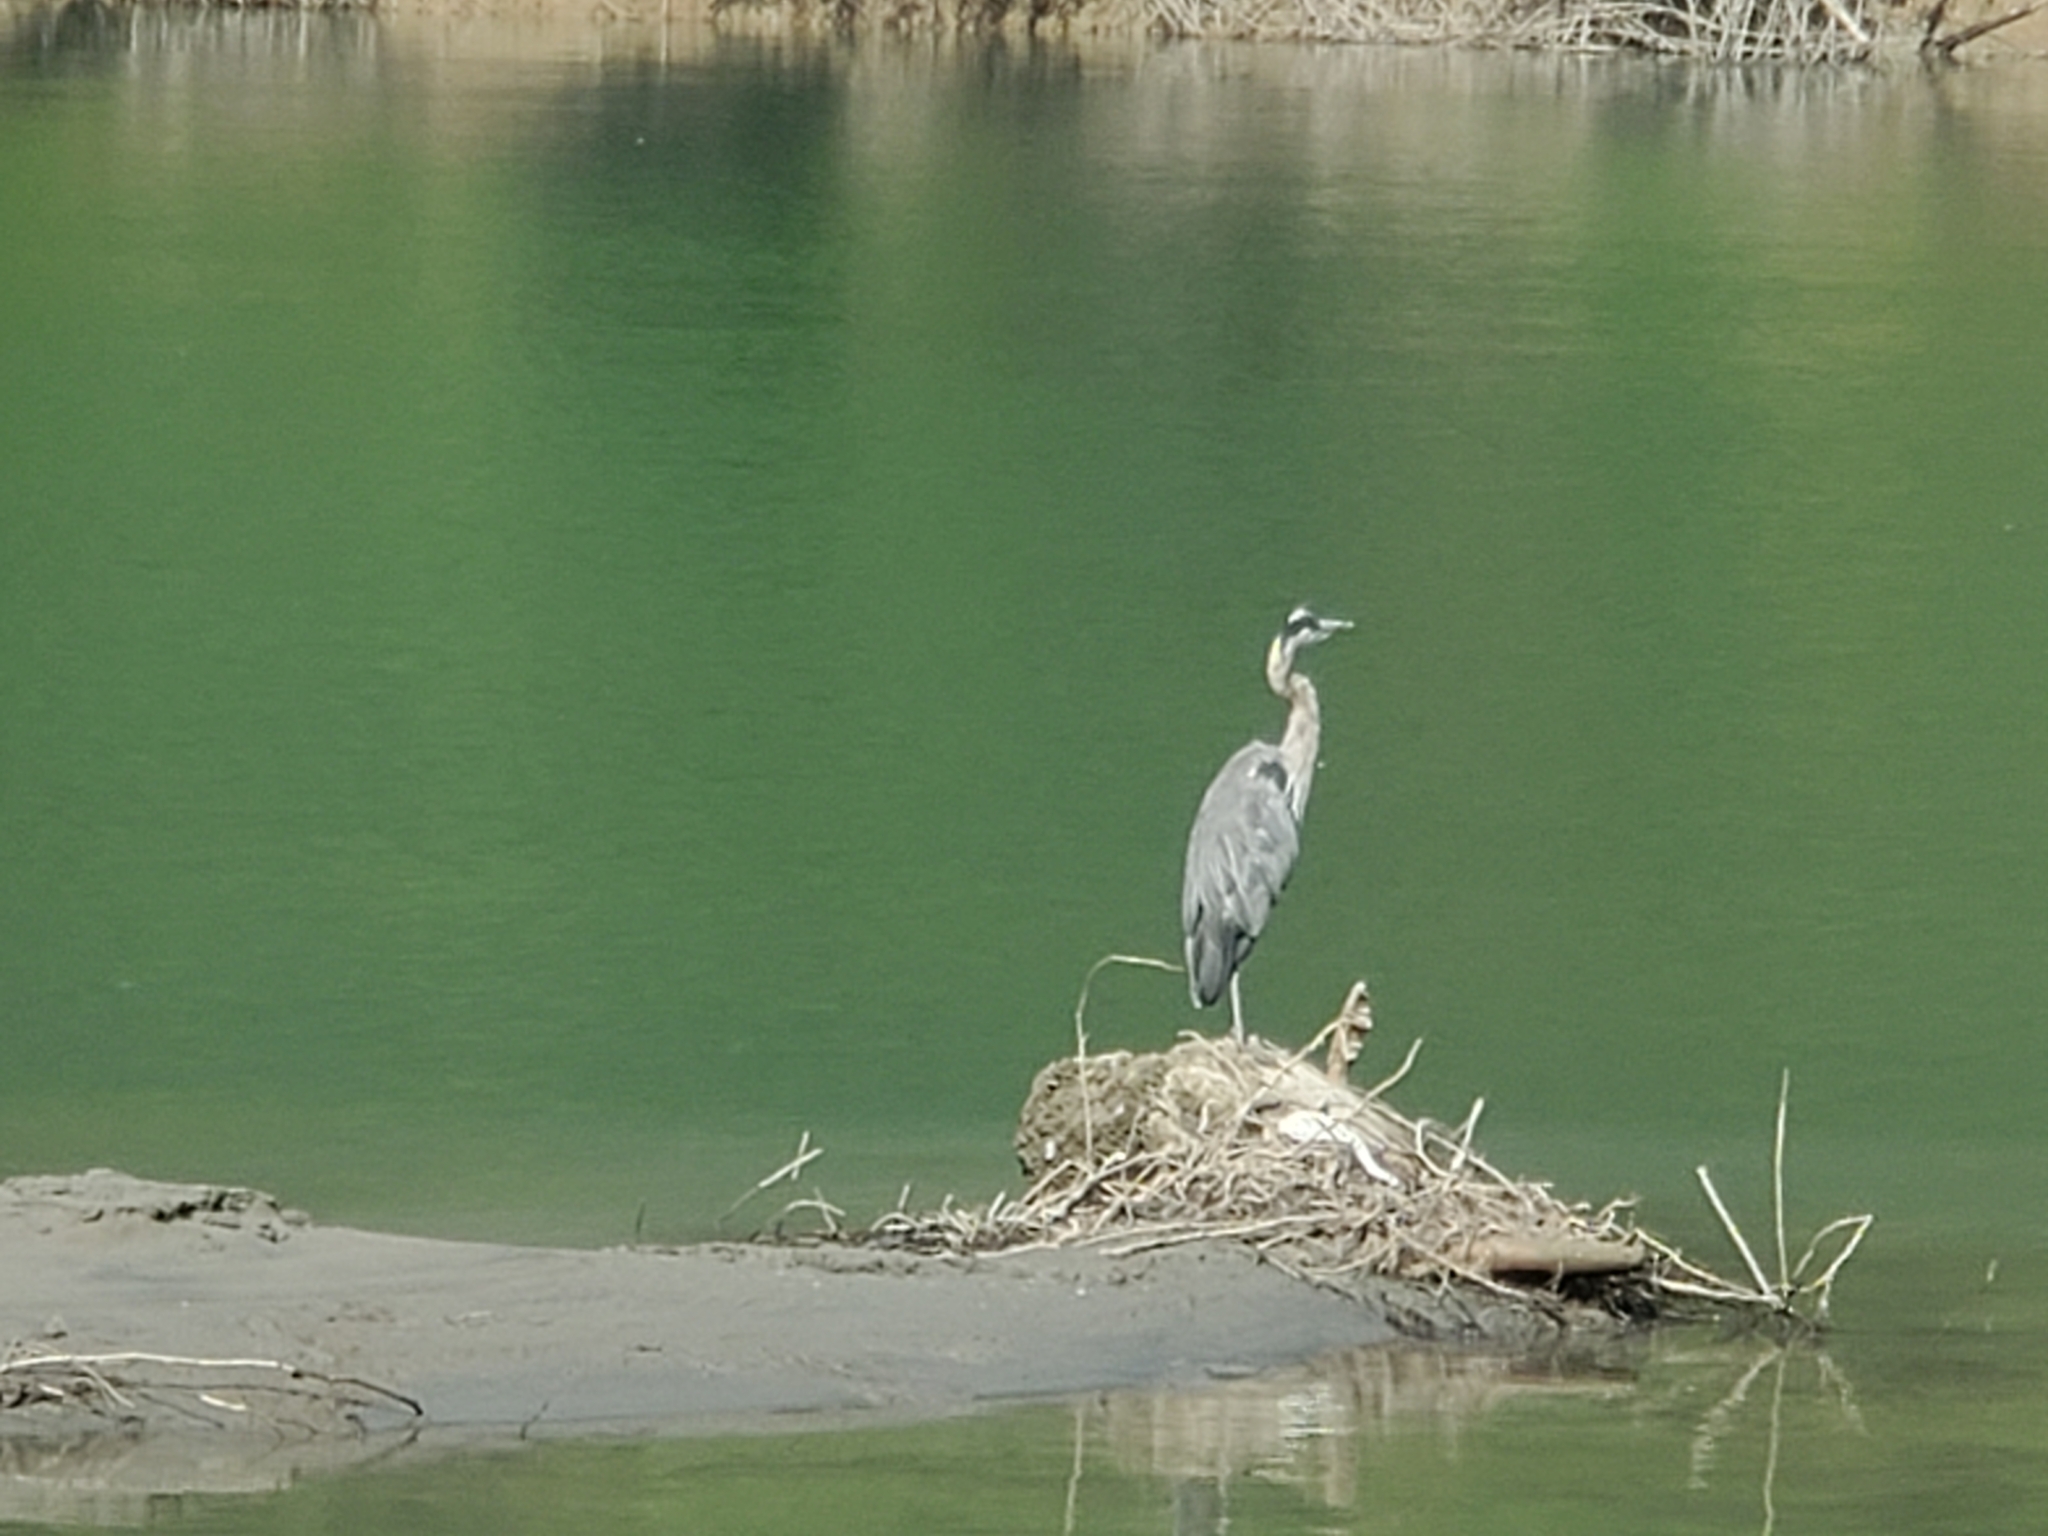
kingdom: Animalia
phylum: Chordata
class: Aves
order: Pelecaniformes
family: Ardeidae
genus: Ardea
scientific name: Ardea herodias
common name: Great blue heron
